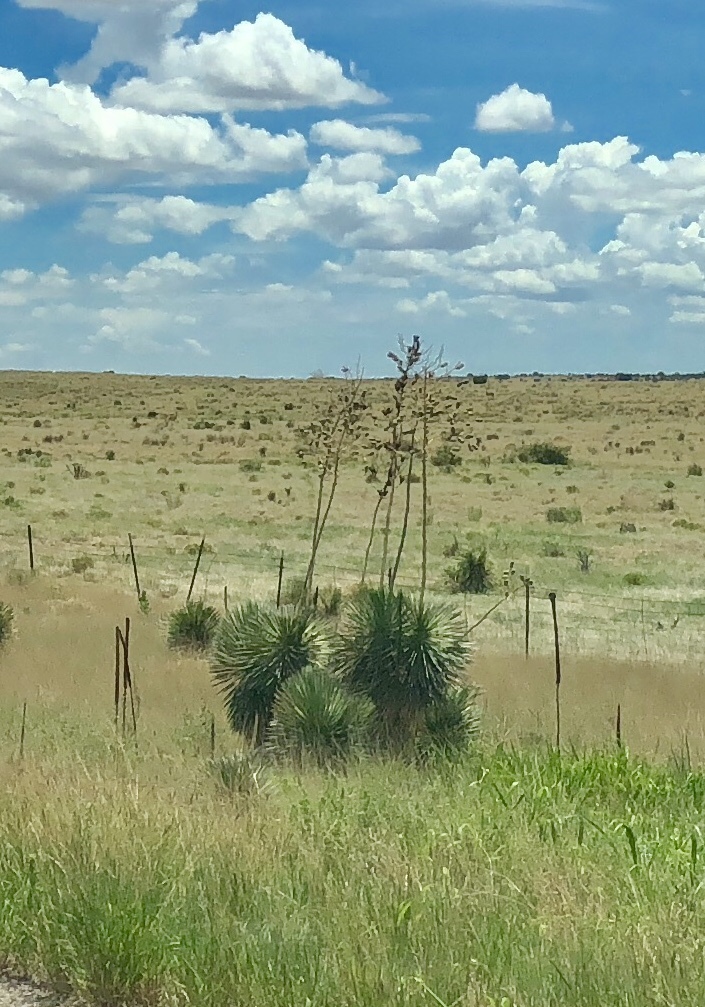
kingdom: Plantae
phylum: Tracheophyta
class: Liliopsida
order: Asparagales
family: Asparagaceae
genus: Yucca
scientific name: Yucca elata
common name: Palmella
